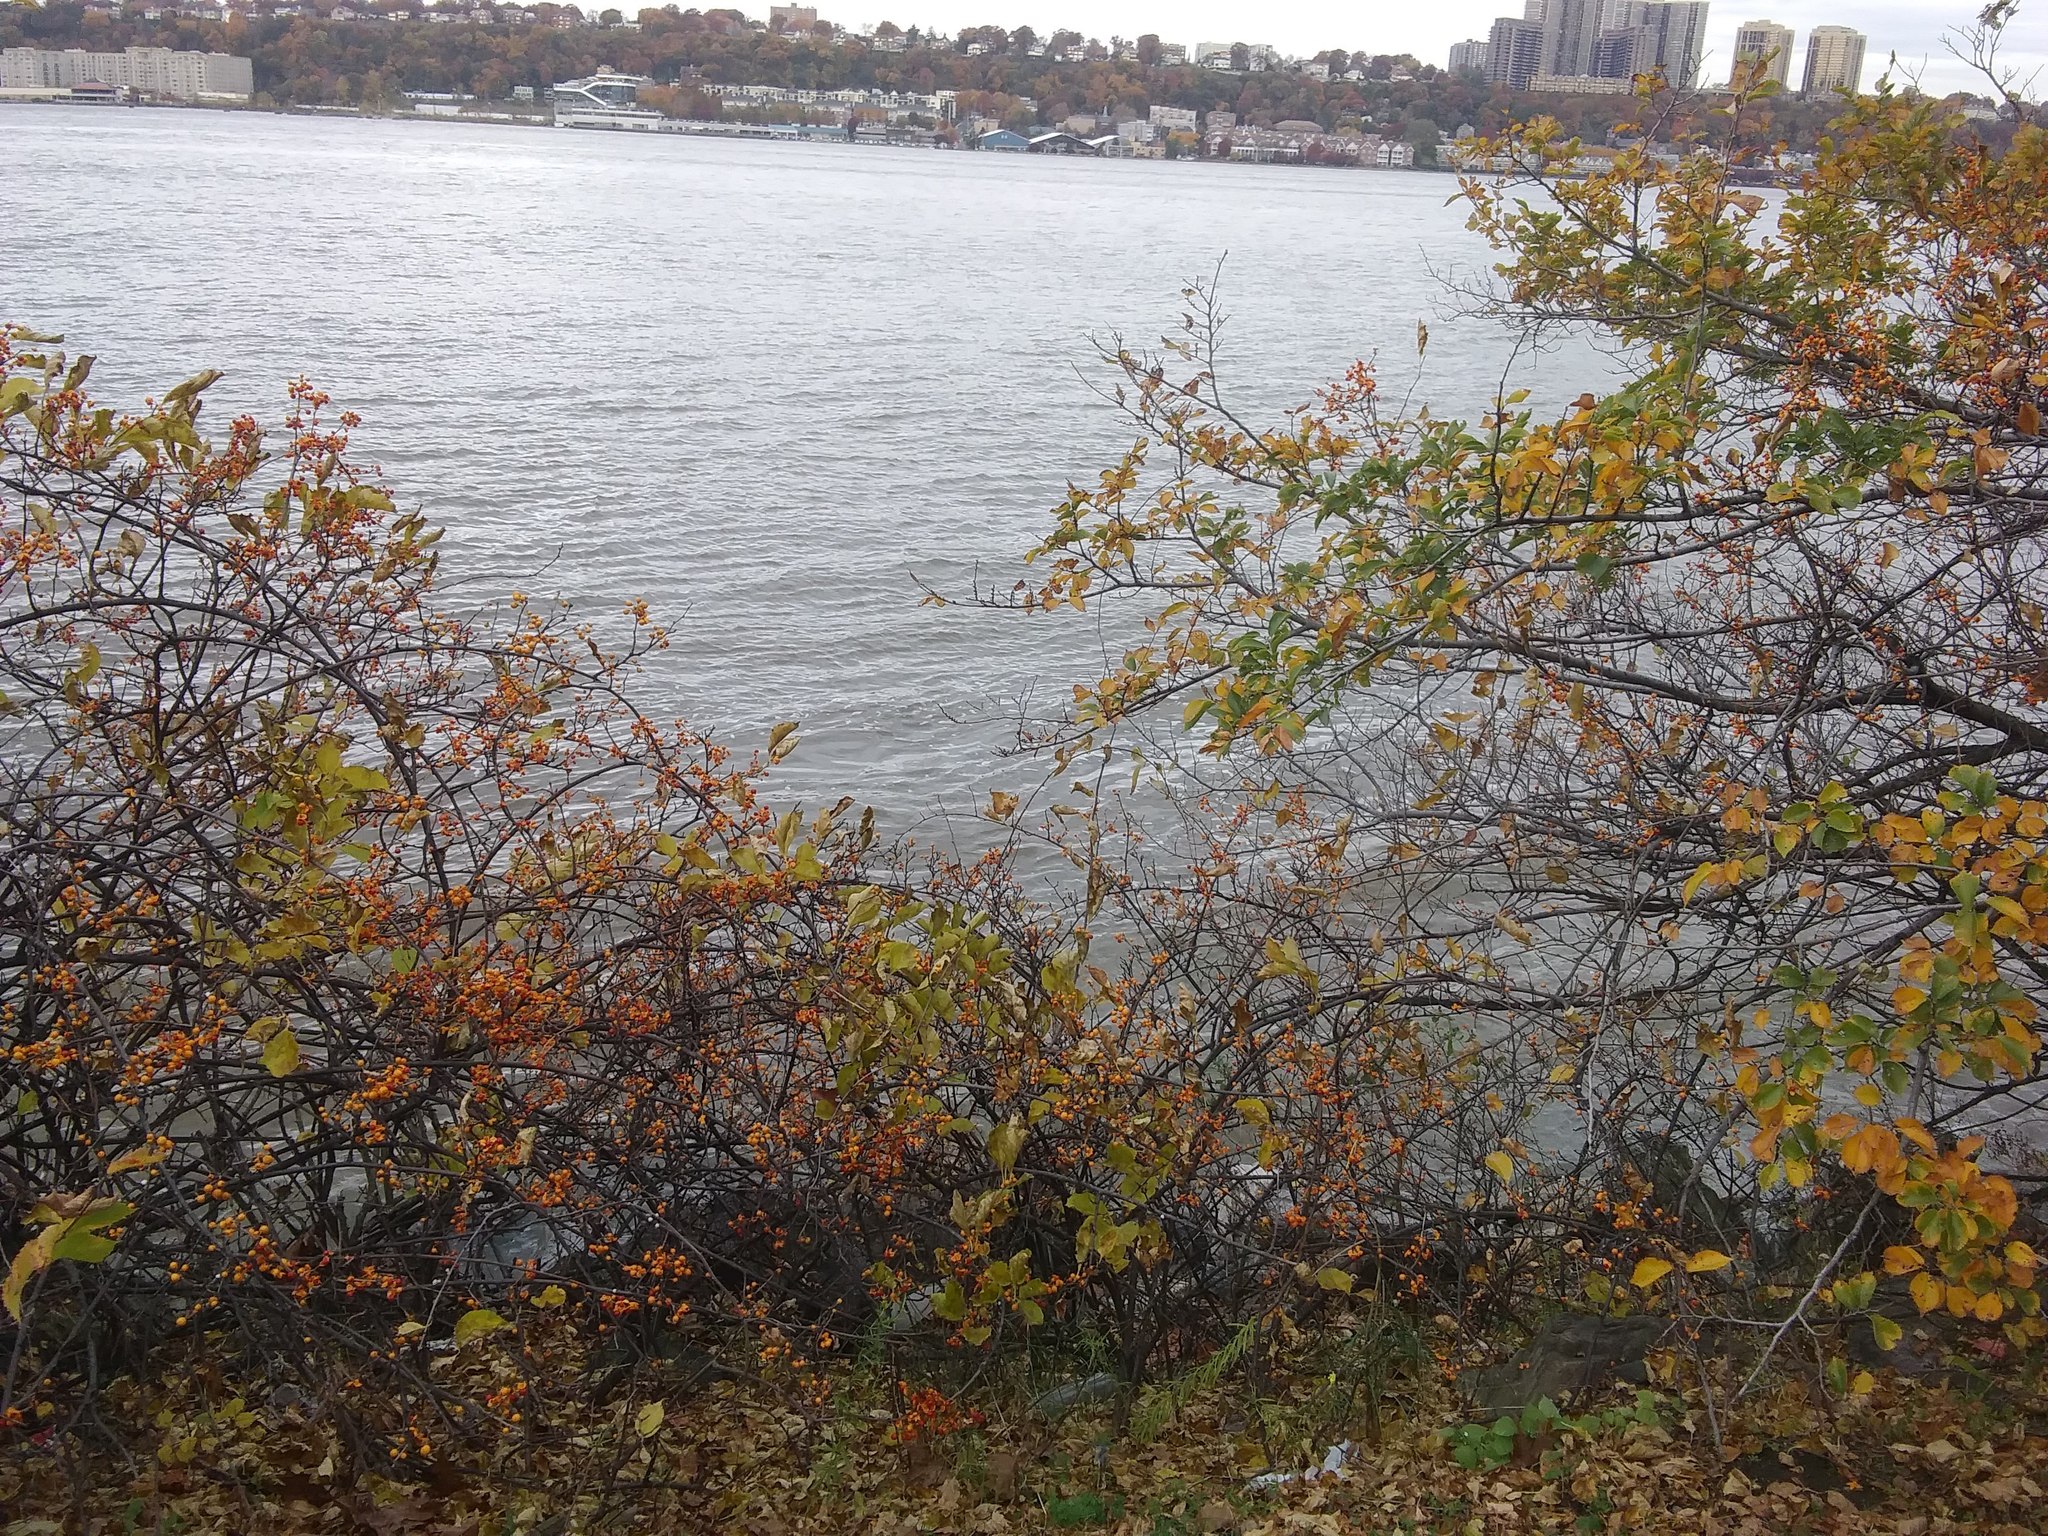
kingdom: Plantae
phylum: Tracheophyta
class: Magnoliopsida
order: Celastrales
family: Celastraceae
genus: Celastrus
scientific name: Celastrus orbiculatus
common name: Oriental bittersweet
